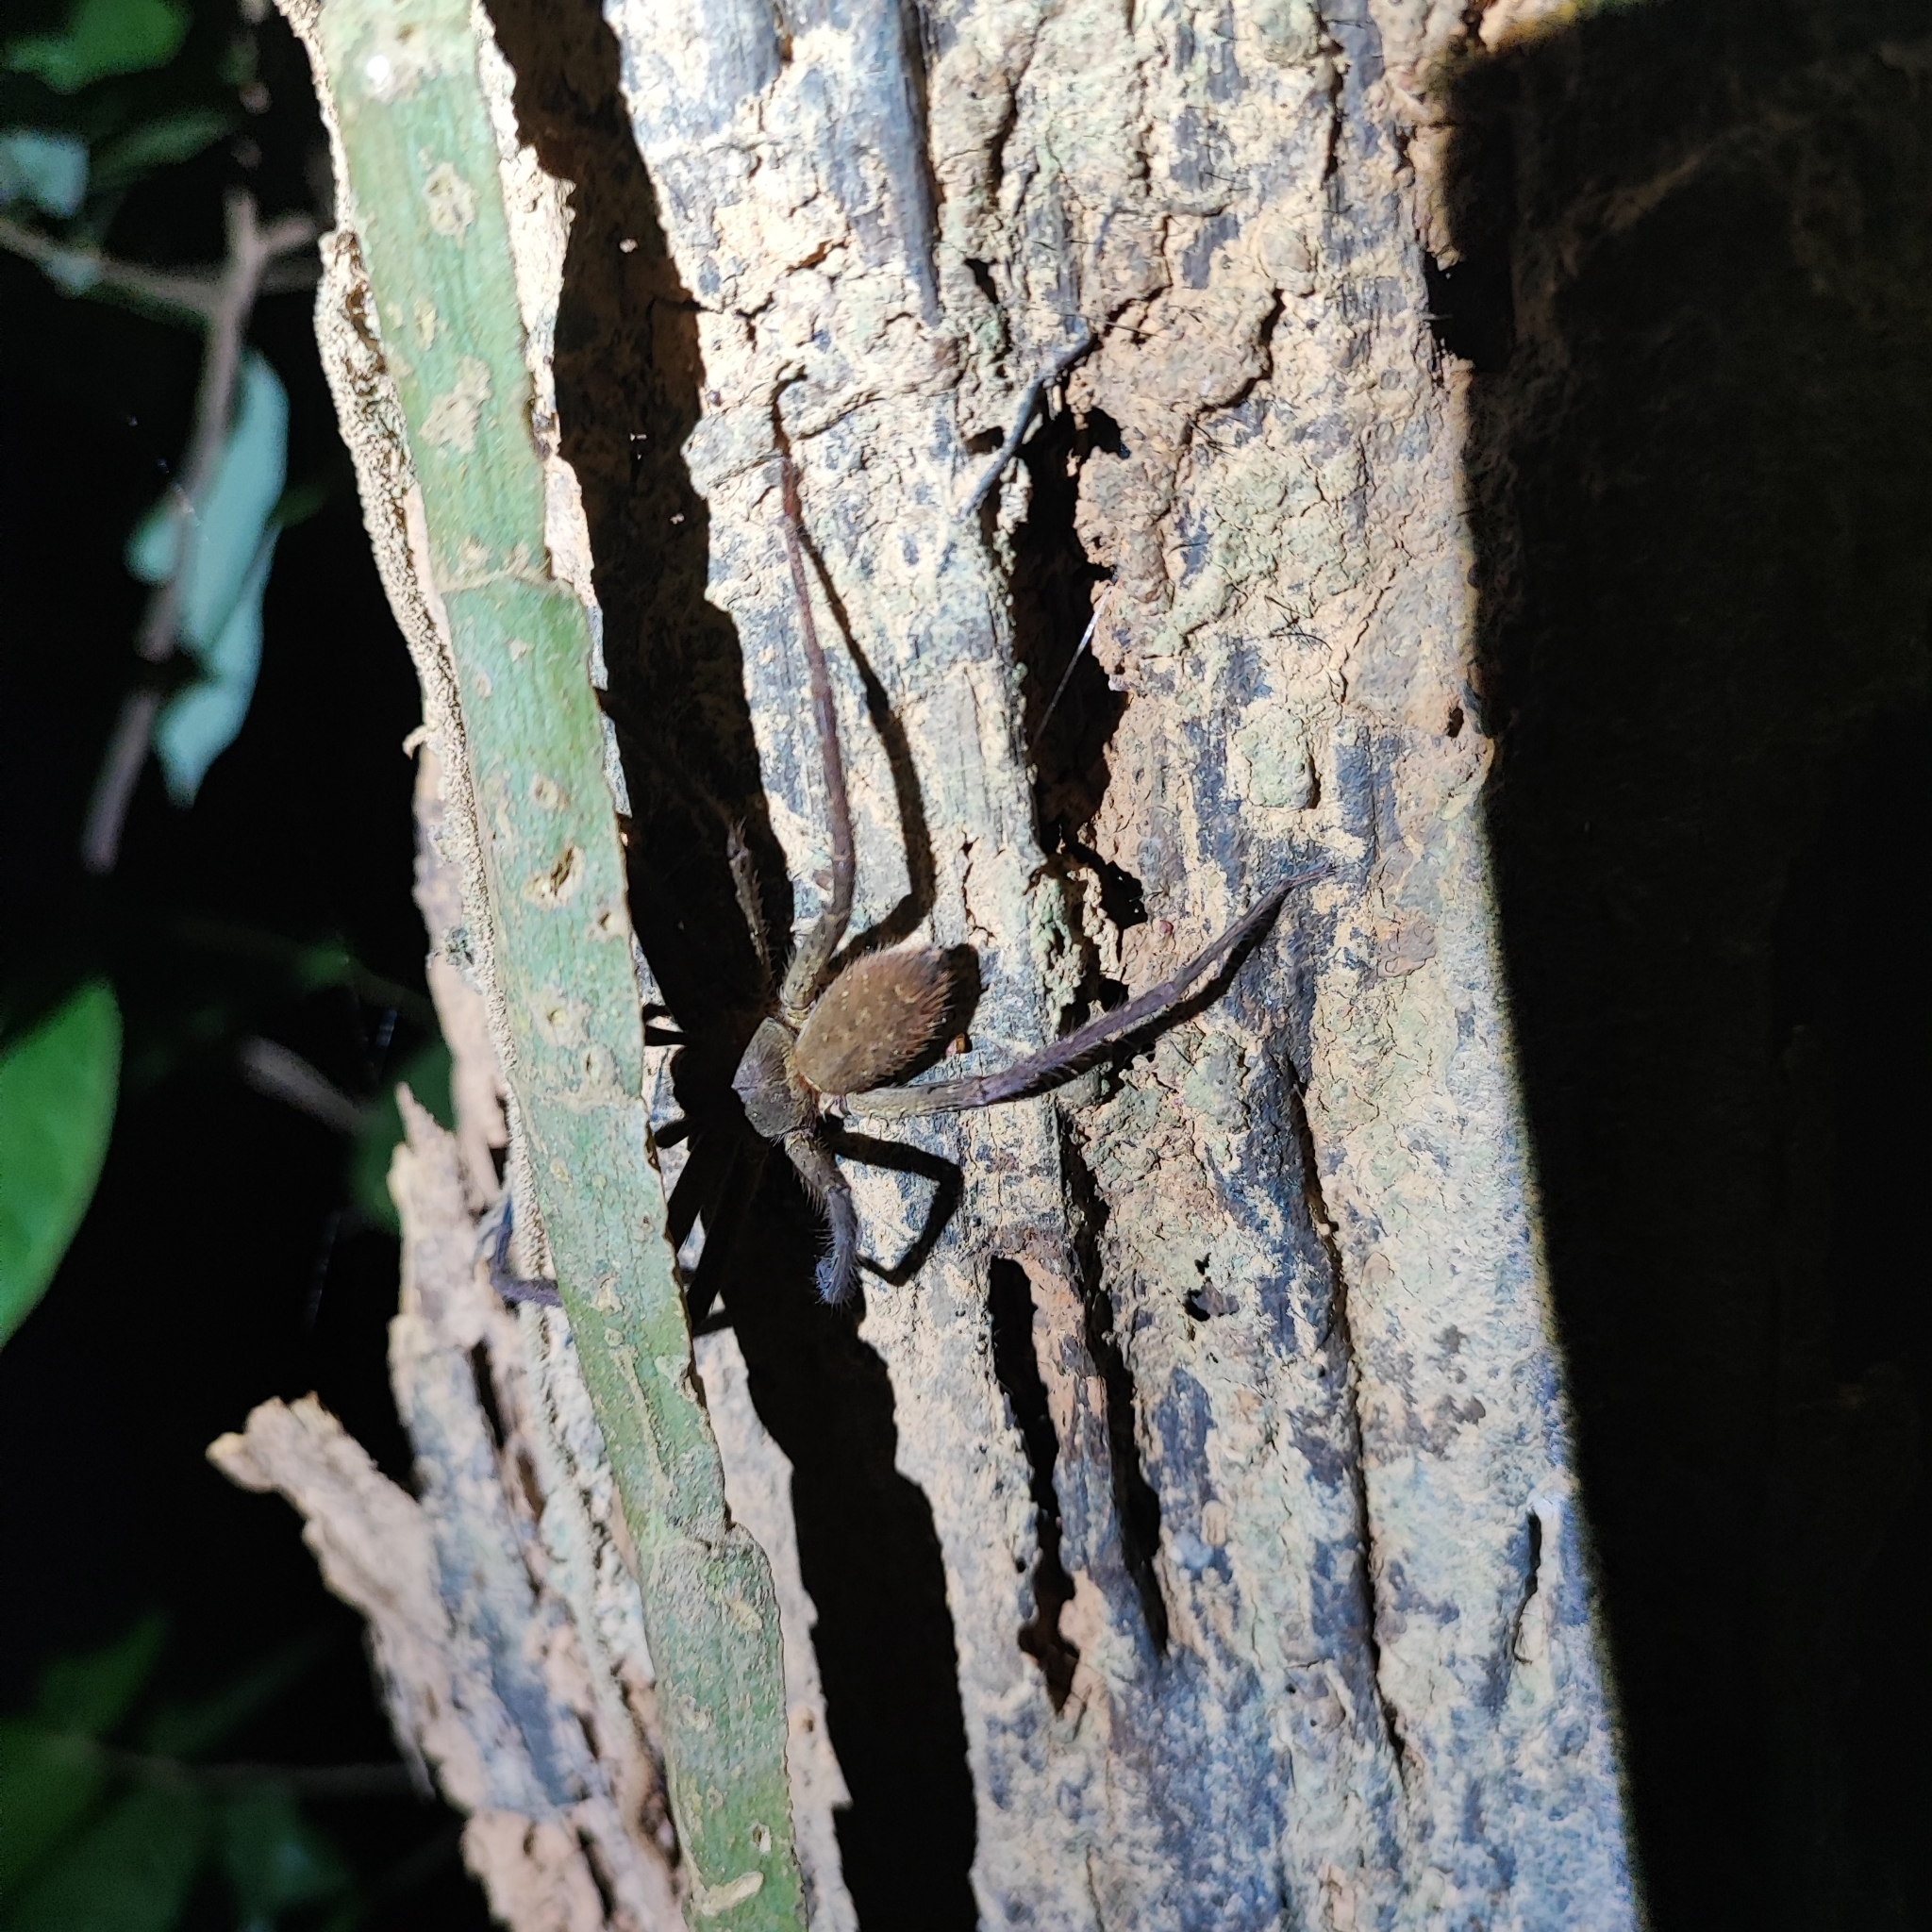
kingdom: Animalia
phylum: Arthropoda
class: Arachnida
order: Araneae
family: Sparassidae
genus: Heteropoda
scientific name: Heteropoda venatoria
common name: Huntsman spider
